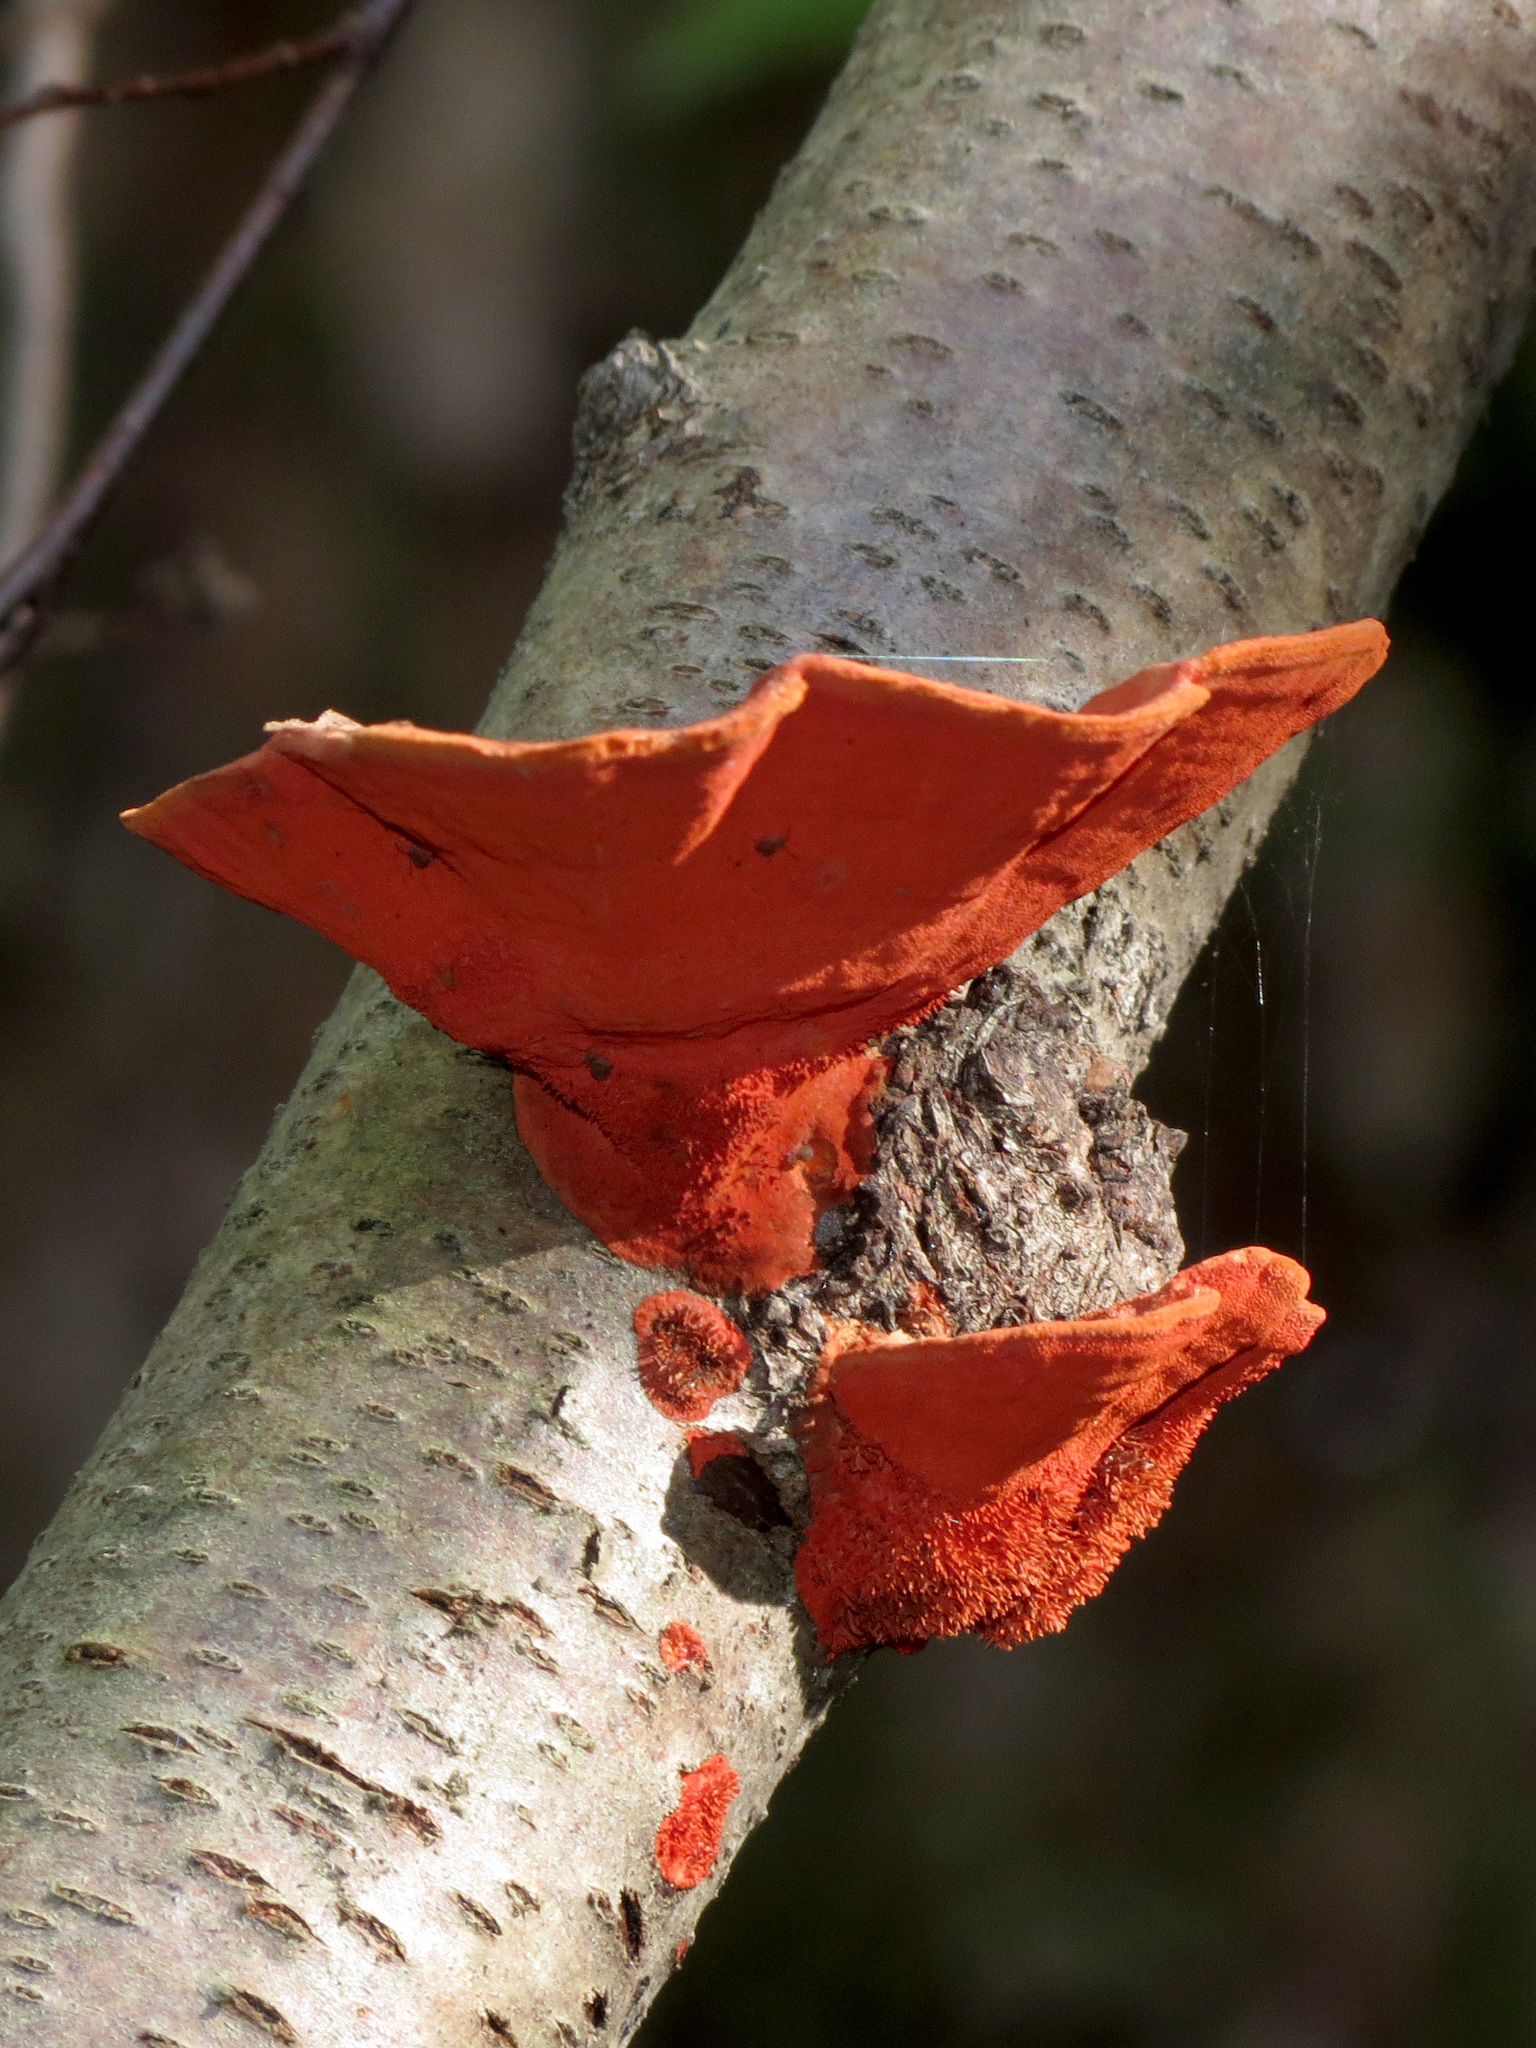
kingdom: Fungi
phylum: Basidiomycota
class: Agaricomycetes
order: Polyporales
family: Polyporaceae
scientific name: Polyporaceae
